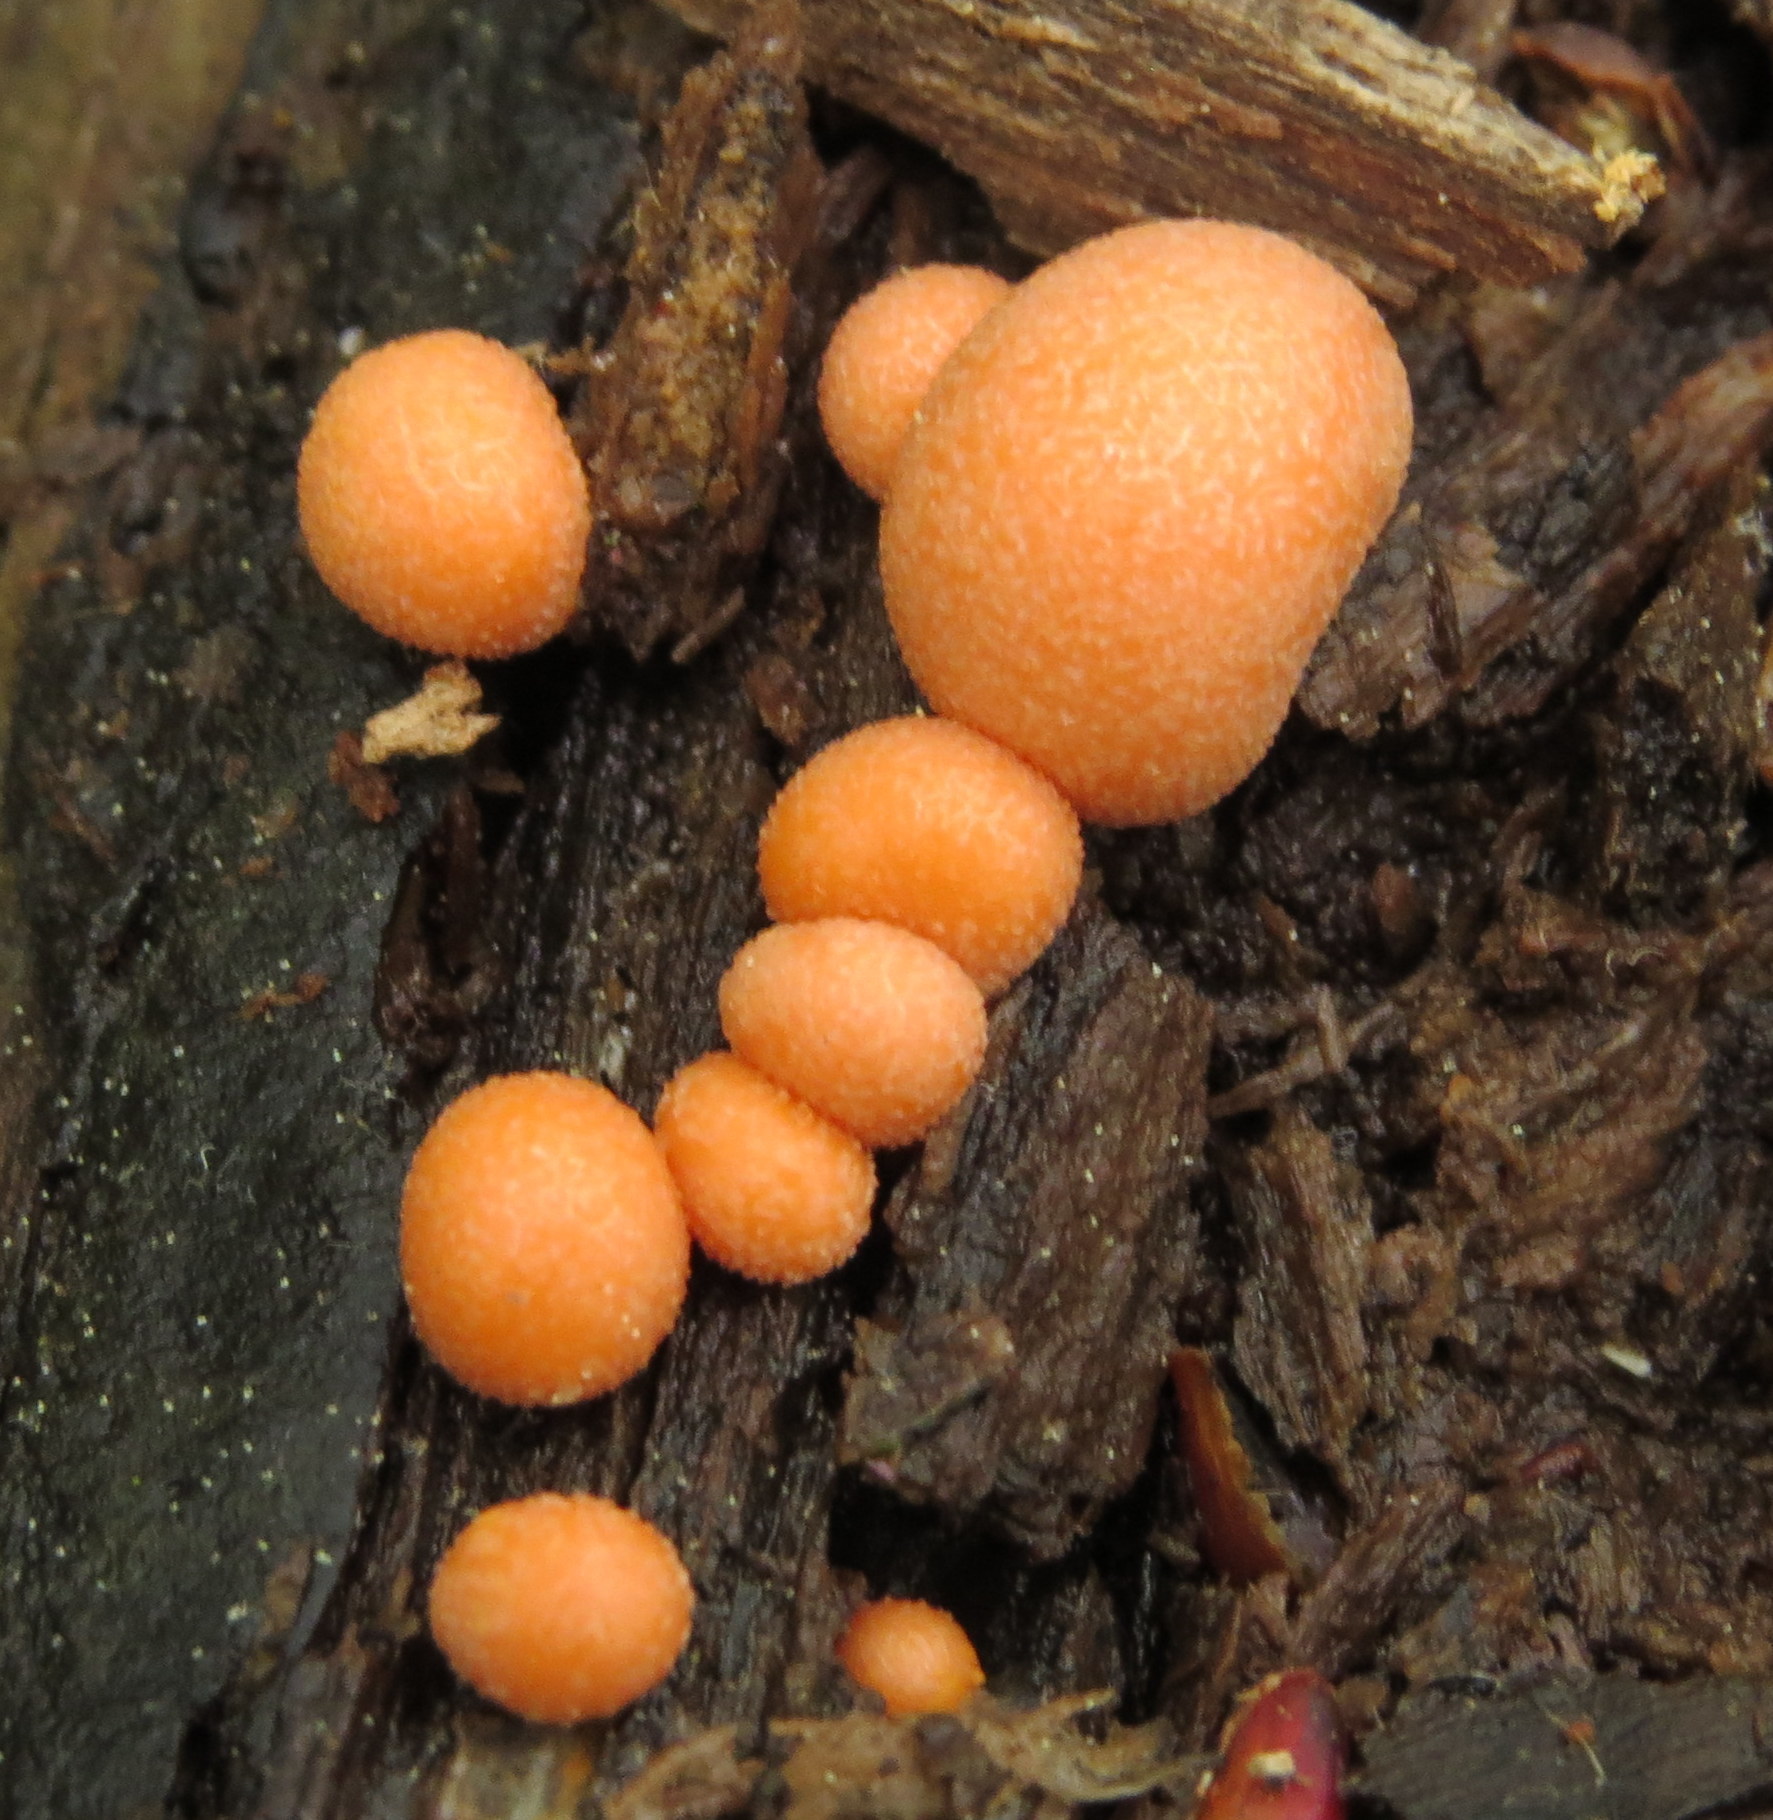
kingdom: Protozoa
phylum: Mycetozoa
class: Myxomycetes
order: Cribrariales
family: Tubiferaceae
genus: Lycogala
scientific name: Lycogala epidendrum
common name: Wolf's milk
